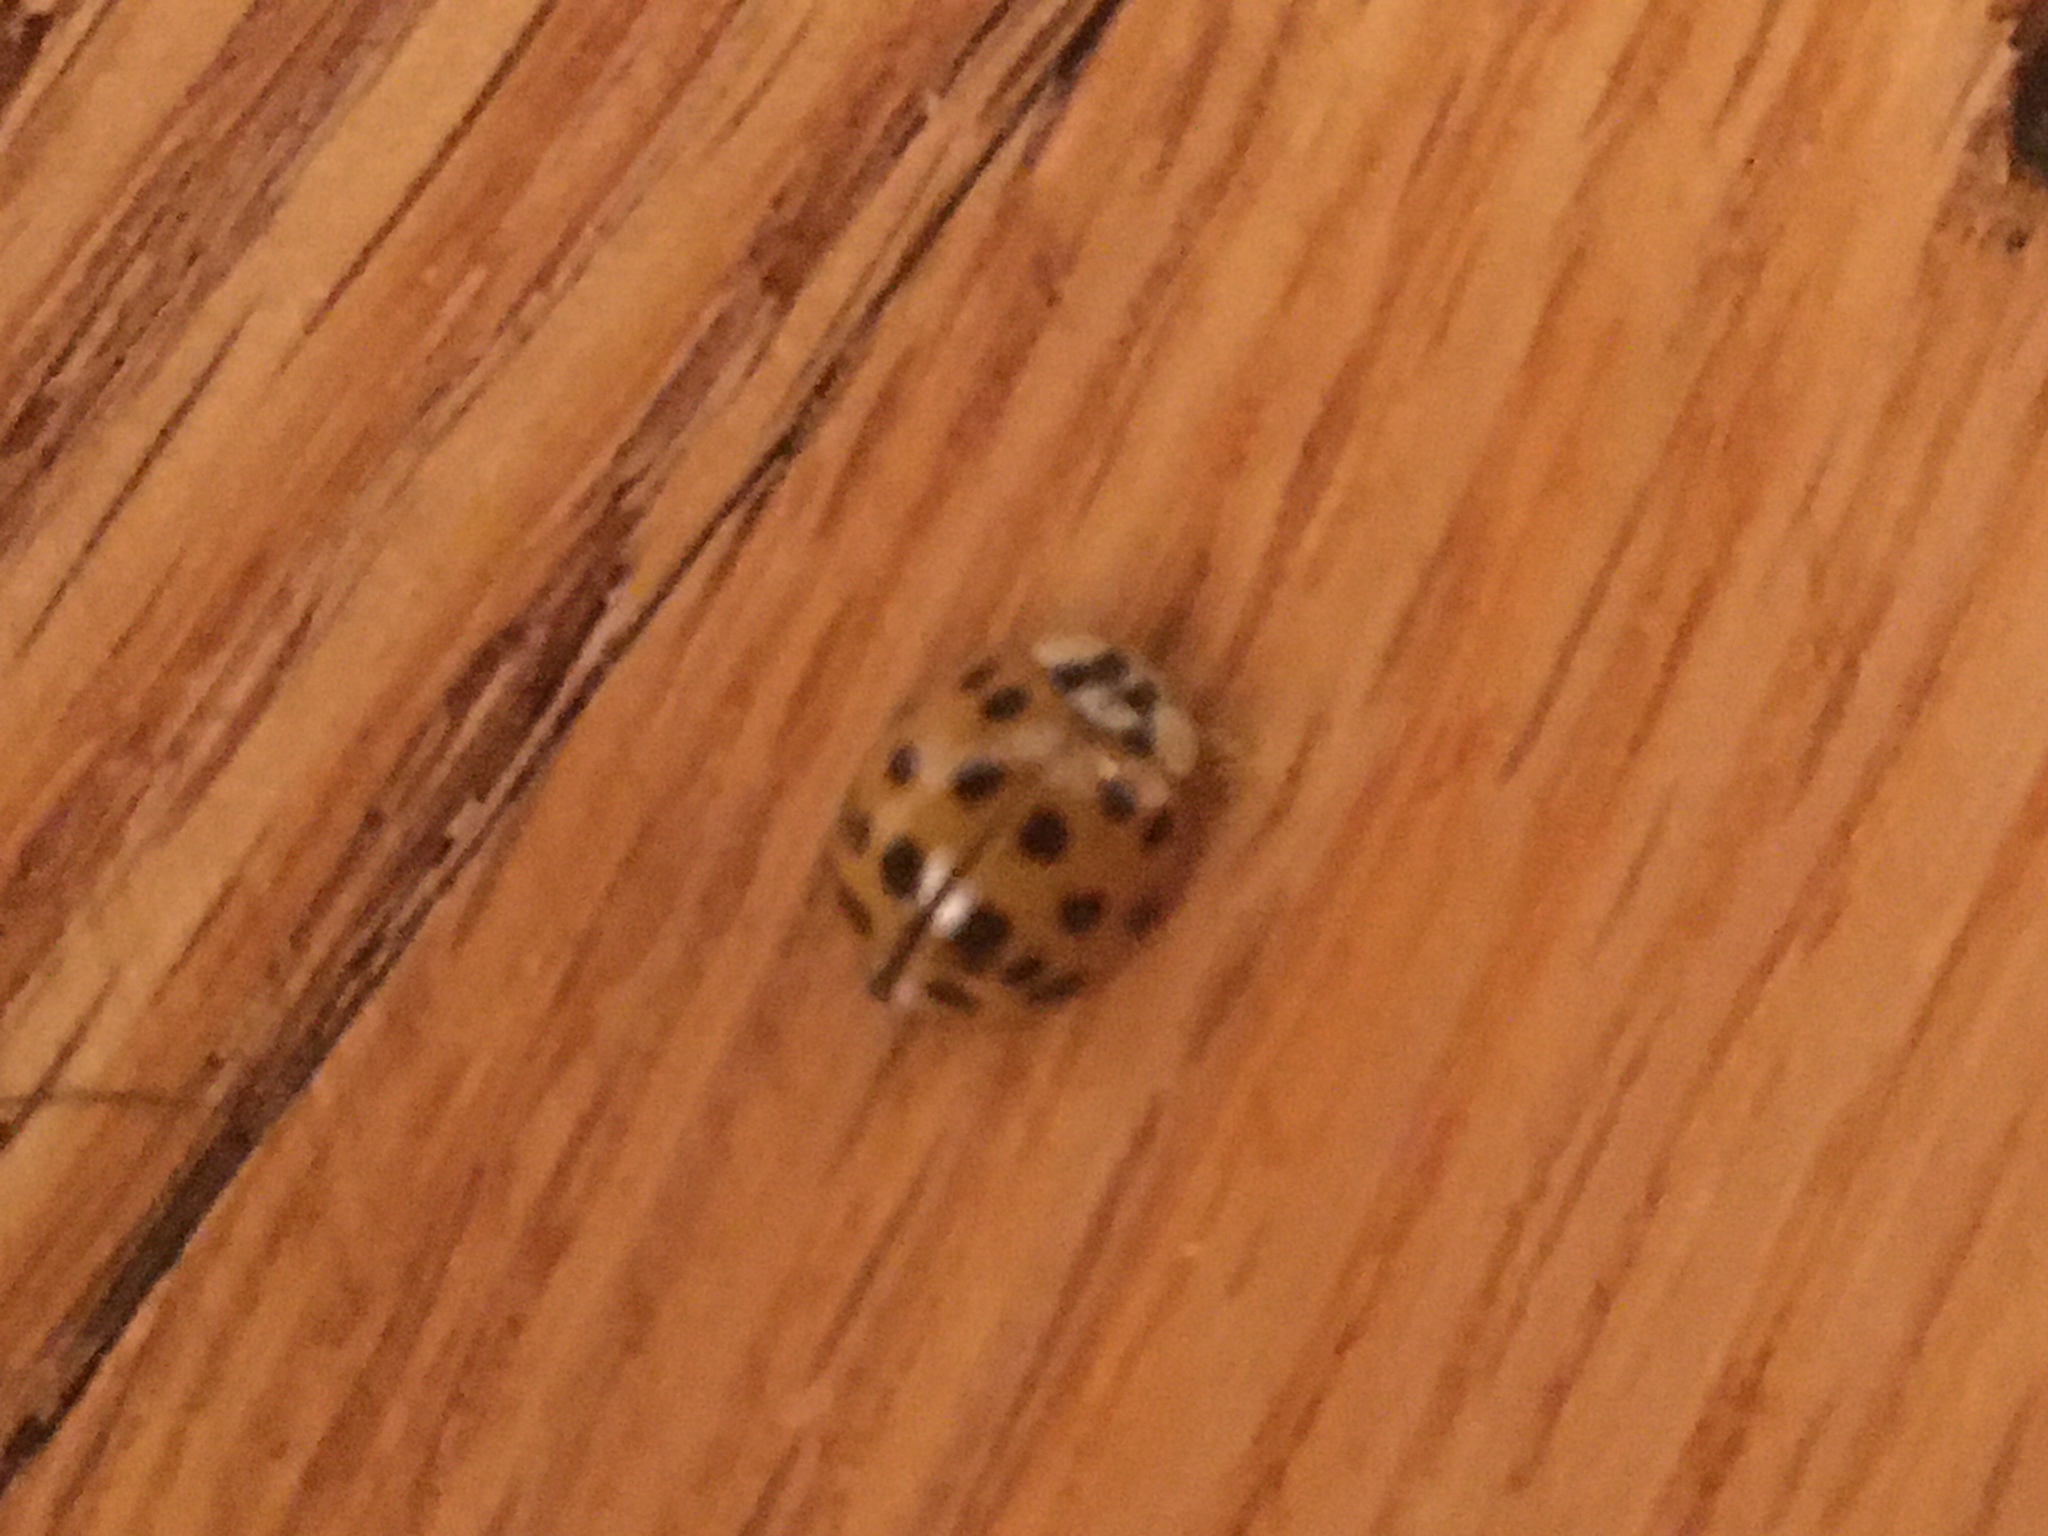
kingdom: Animalia
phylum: Arthropoda
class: Insecta
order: Coleoptera
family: Coccinellidae
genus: Harmonia
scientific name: Harmonia axyridis
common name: Harlequin ladybird
